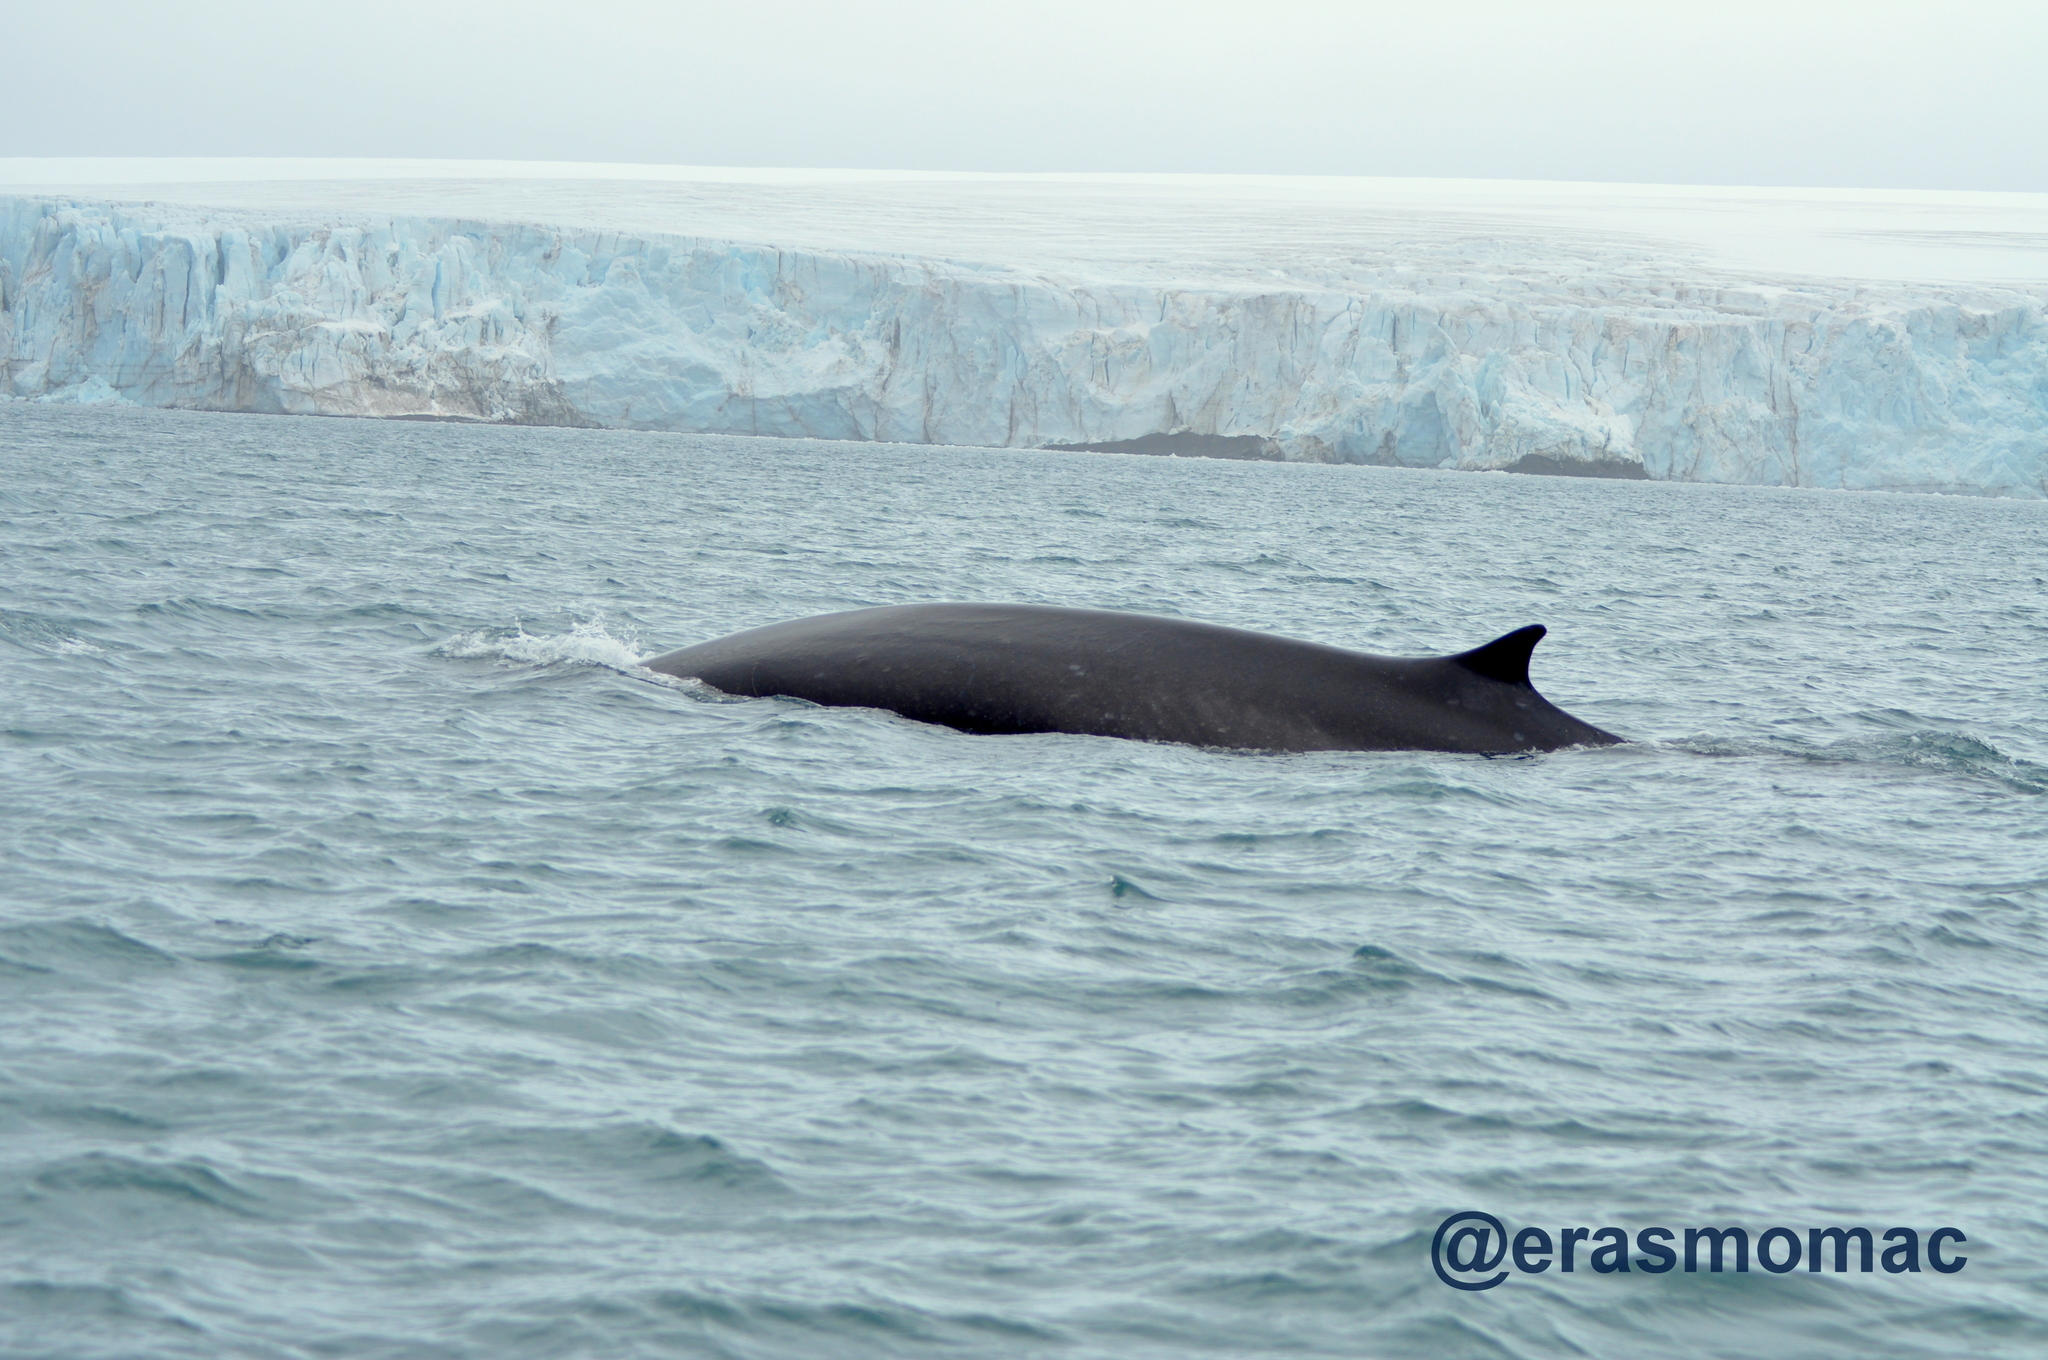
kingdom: Animalia
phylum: Chordata
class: Mammalia
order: Cetacea
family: Balaenopteridae
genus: Balaenoptera
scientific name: Balaenoptera physalus
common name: Fin whale
